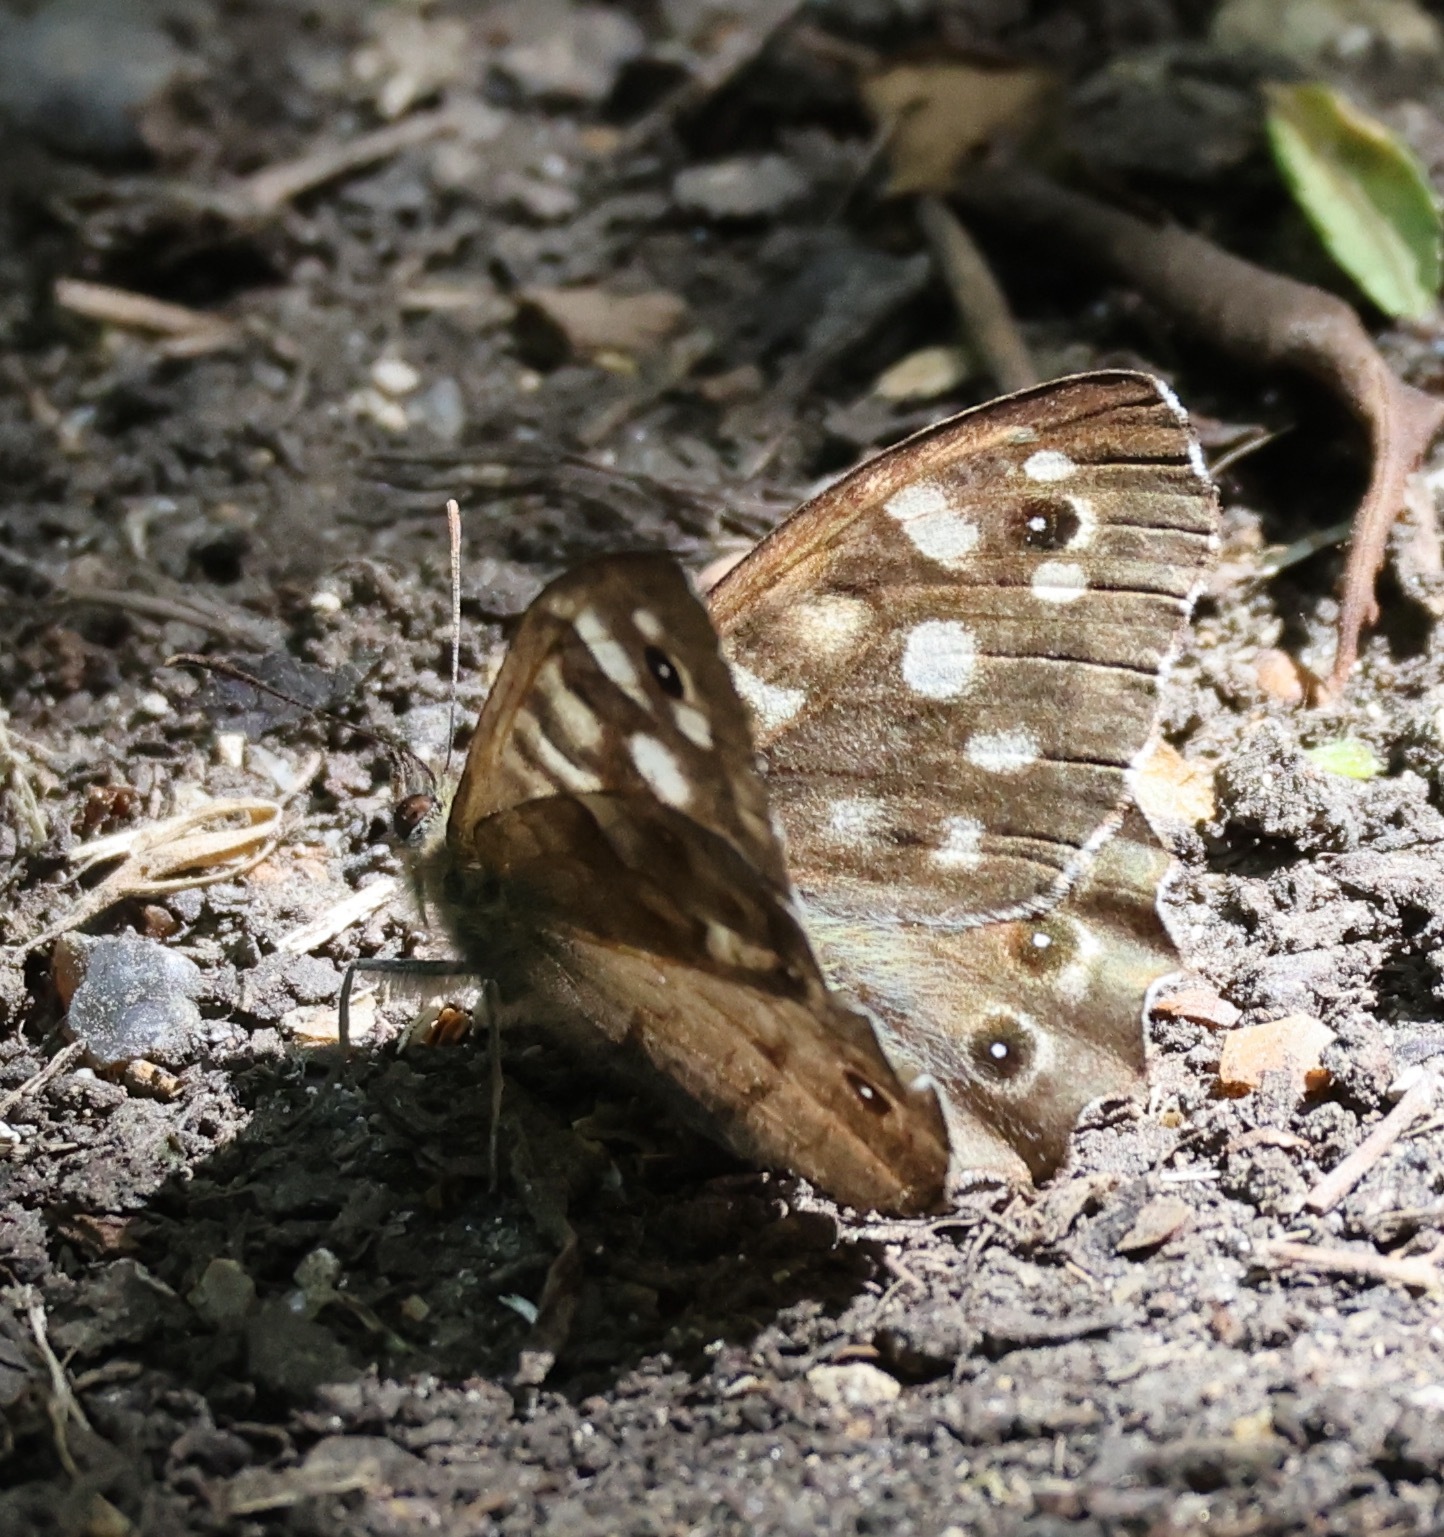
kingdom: Animalia
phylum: Arthropoda
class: Insecta
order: Lepidoptera
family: Nymphalidae
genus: Pararge
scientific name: Pararge aegeria
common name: Speckled wood
